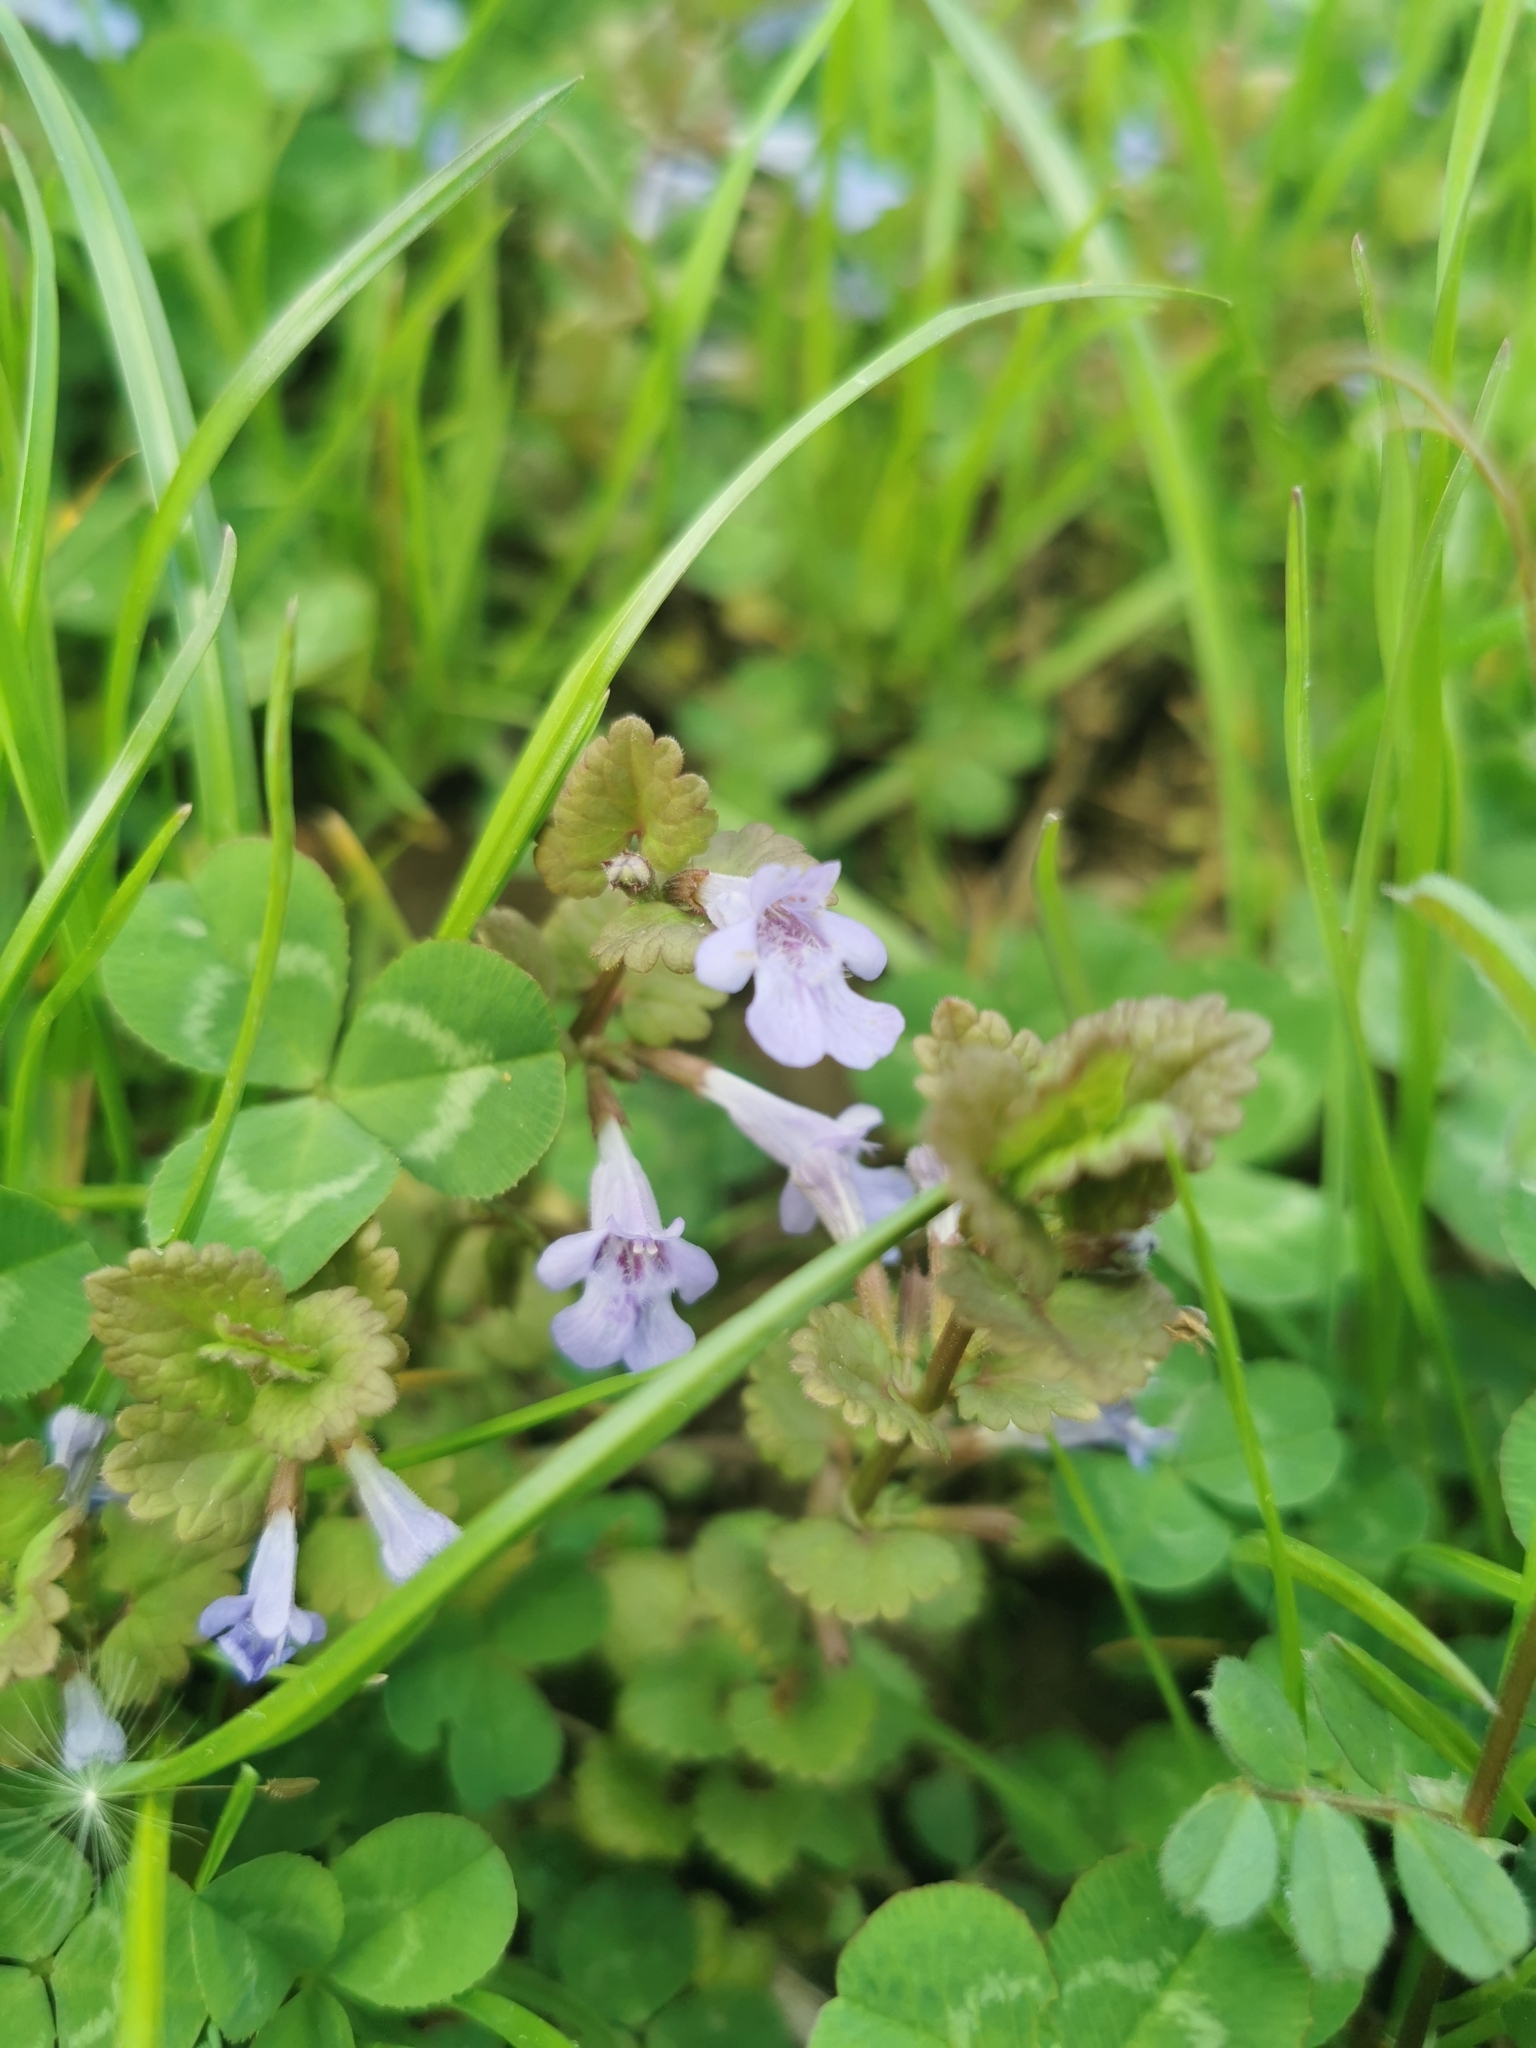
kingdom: Plantae
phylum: Tracheophyta
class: Magnoliopsida
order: Lamiales
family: Lamiaceae
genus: Glechoma
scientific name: Glechoma hederacea
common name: Ground ivy
